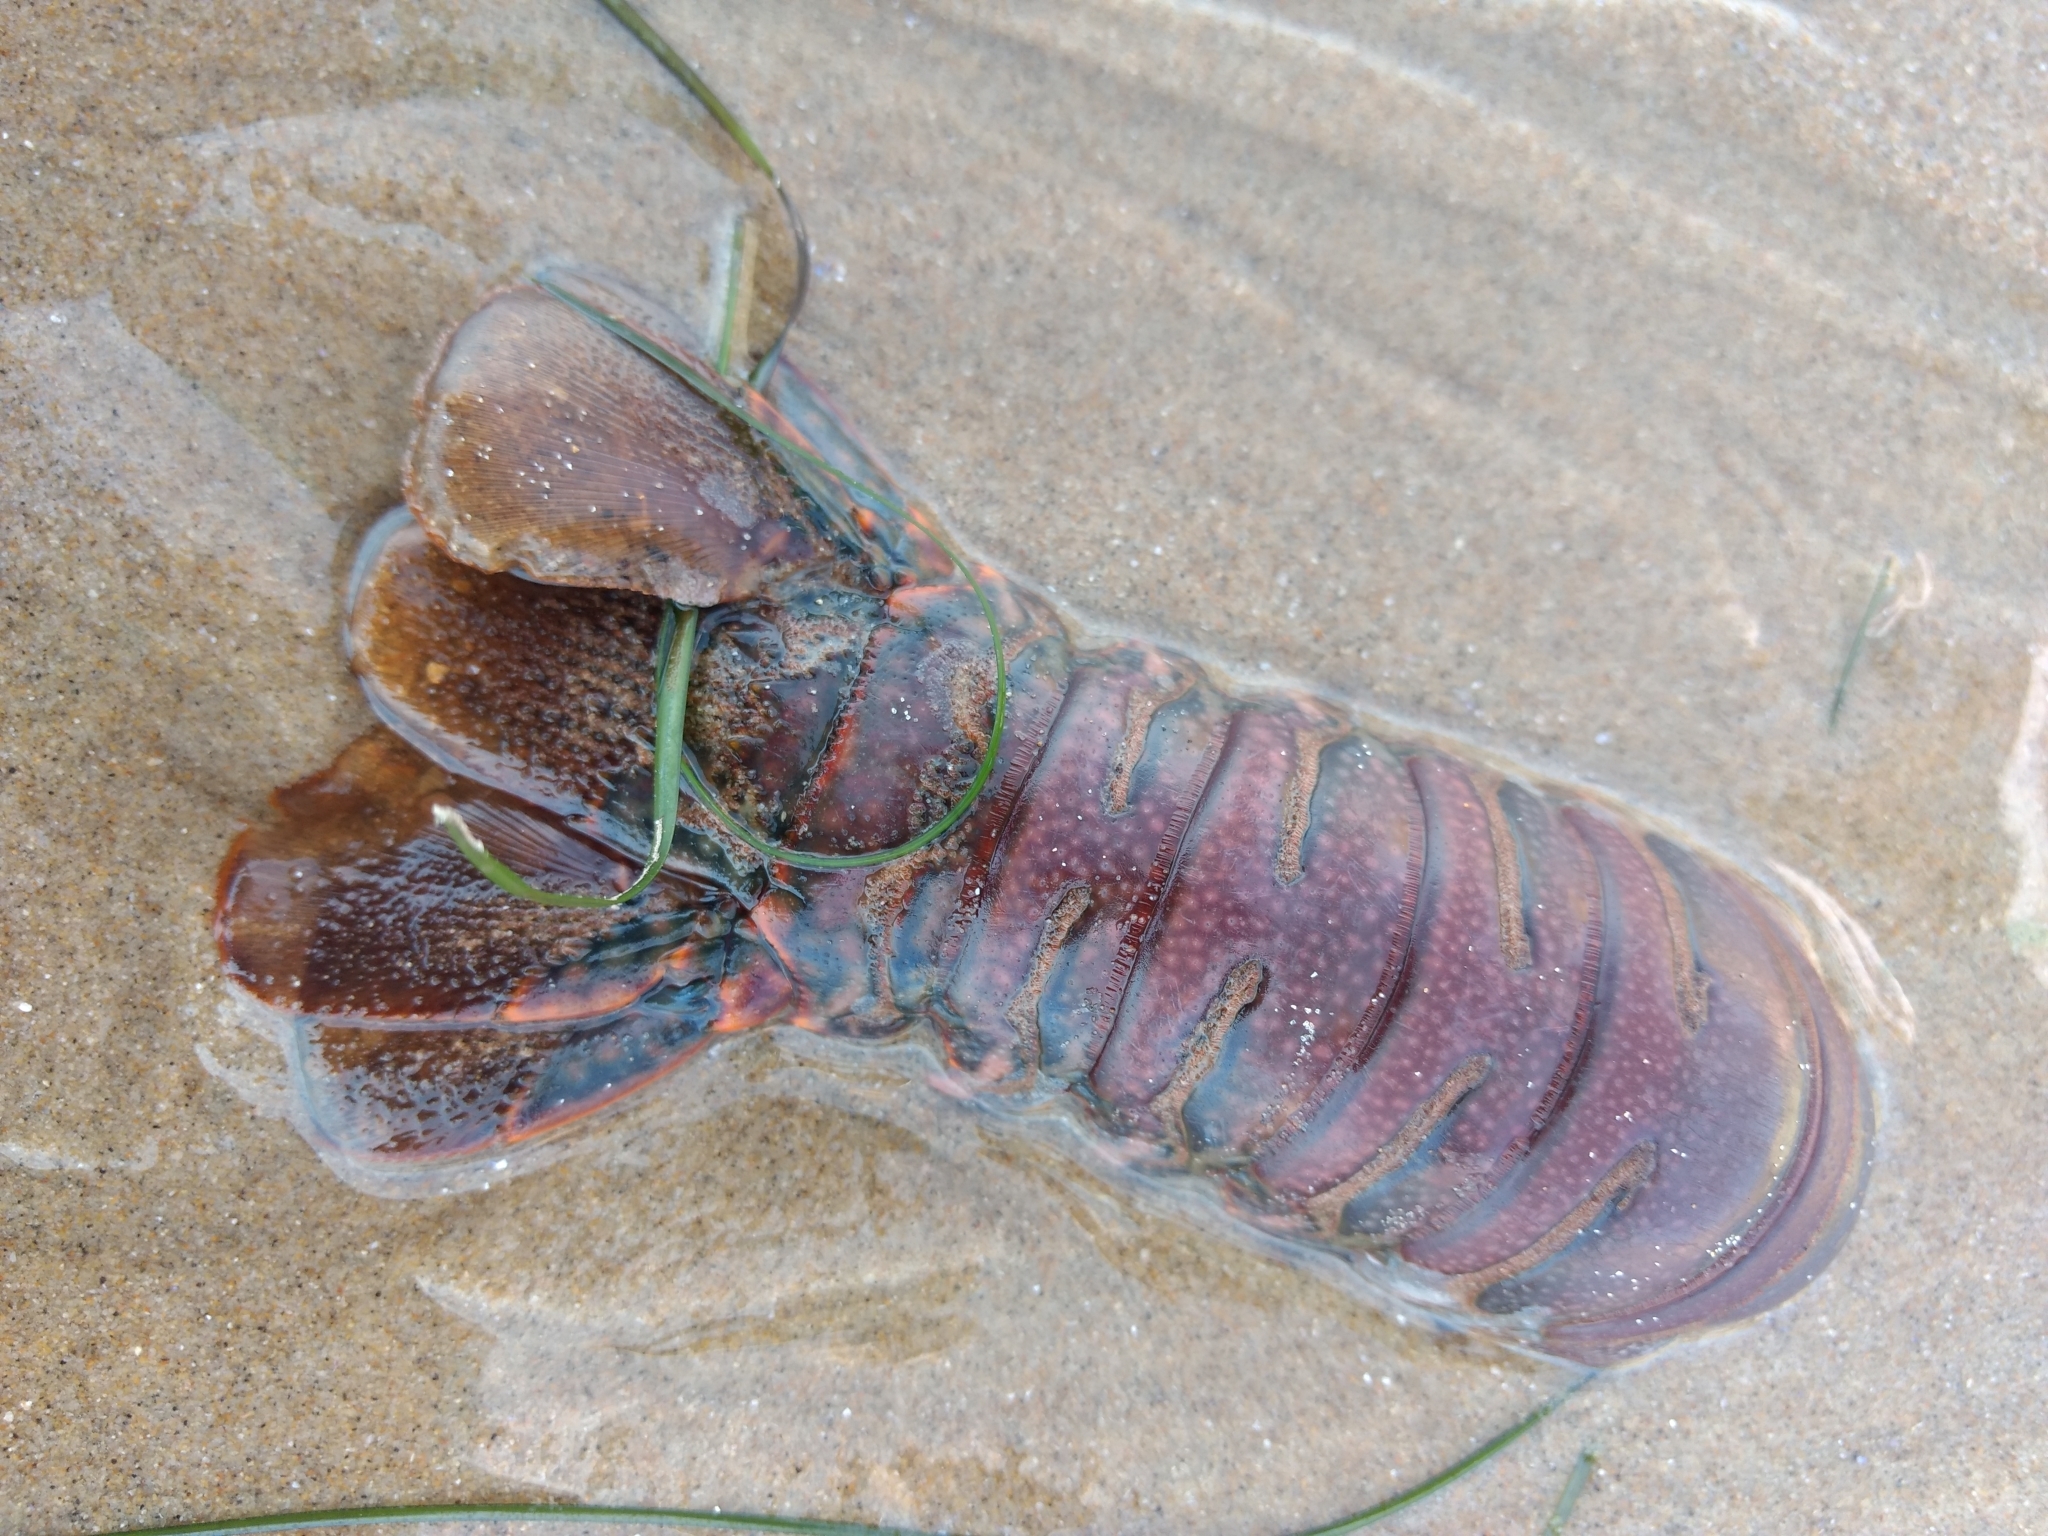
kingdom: Animalia
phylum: Arthropoda
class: Malacostraca
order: Decapoda
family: Palinuridae
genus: Panulirus
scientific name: Panulirus interruptus
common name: California spiny lobster
